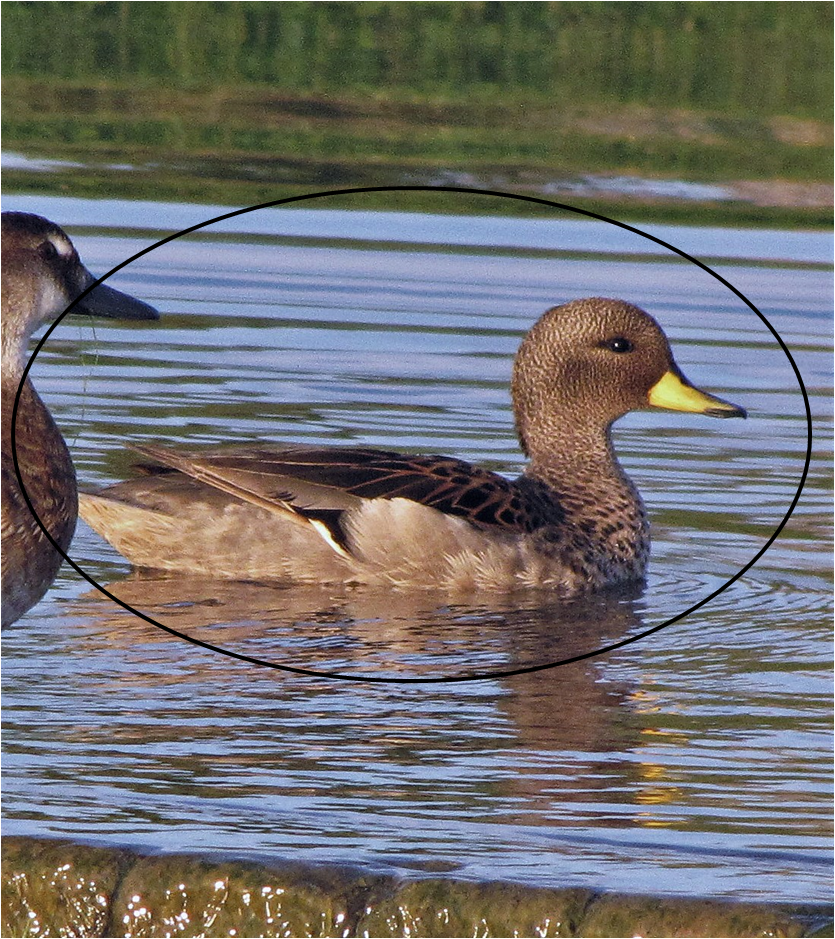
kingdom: Animalia
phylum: Chordata
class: Aves
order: Anseriformes
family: Anatidae
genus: Anas
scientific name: Anas flavirostris
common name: Yellow-billed teal
